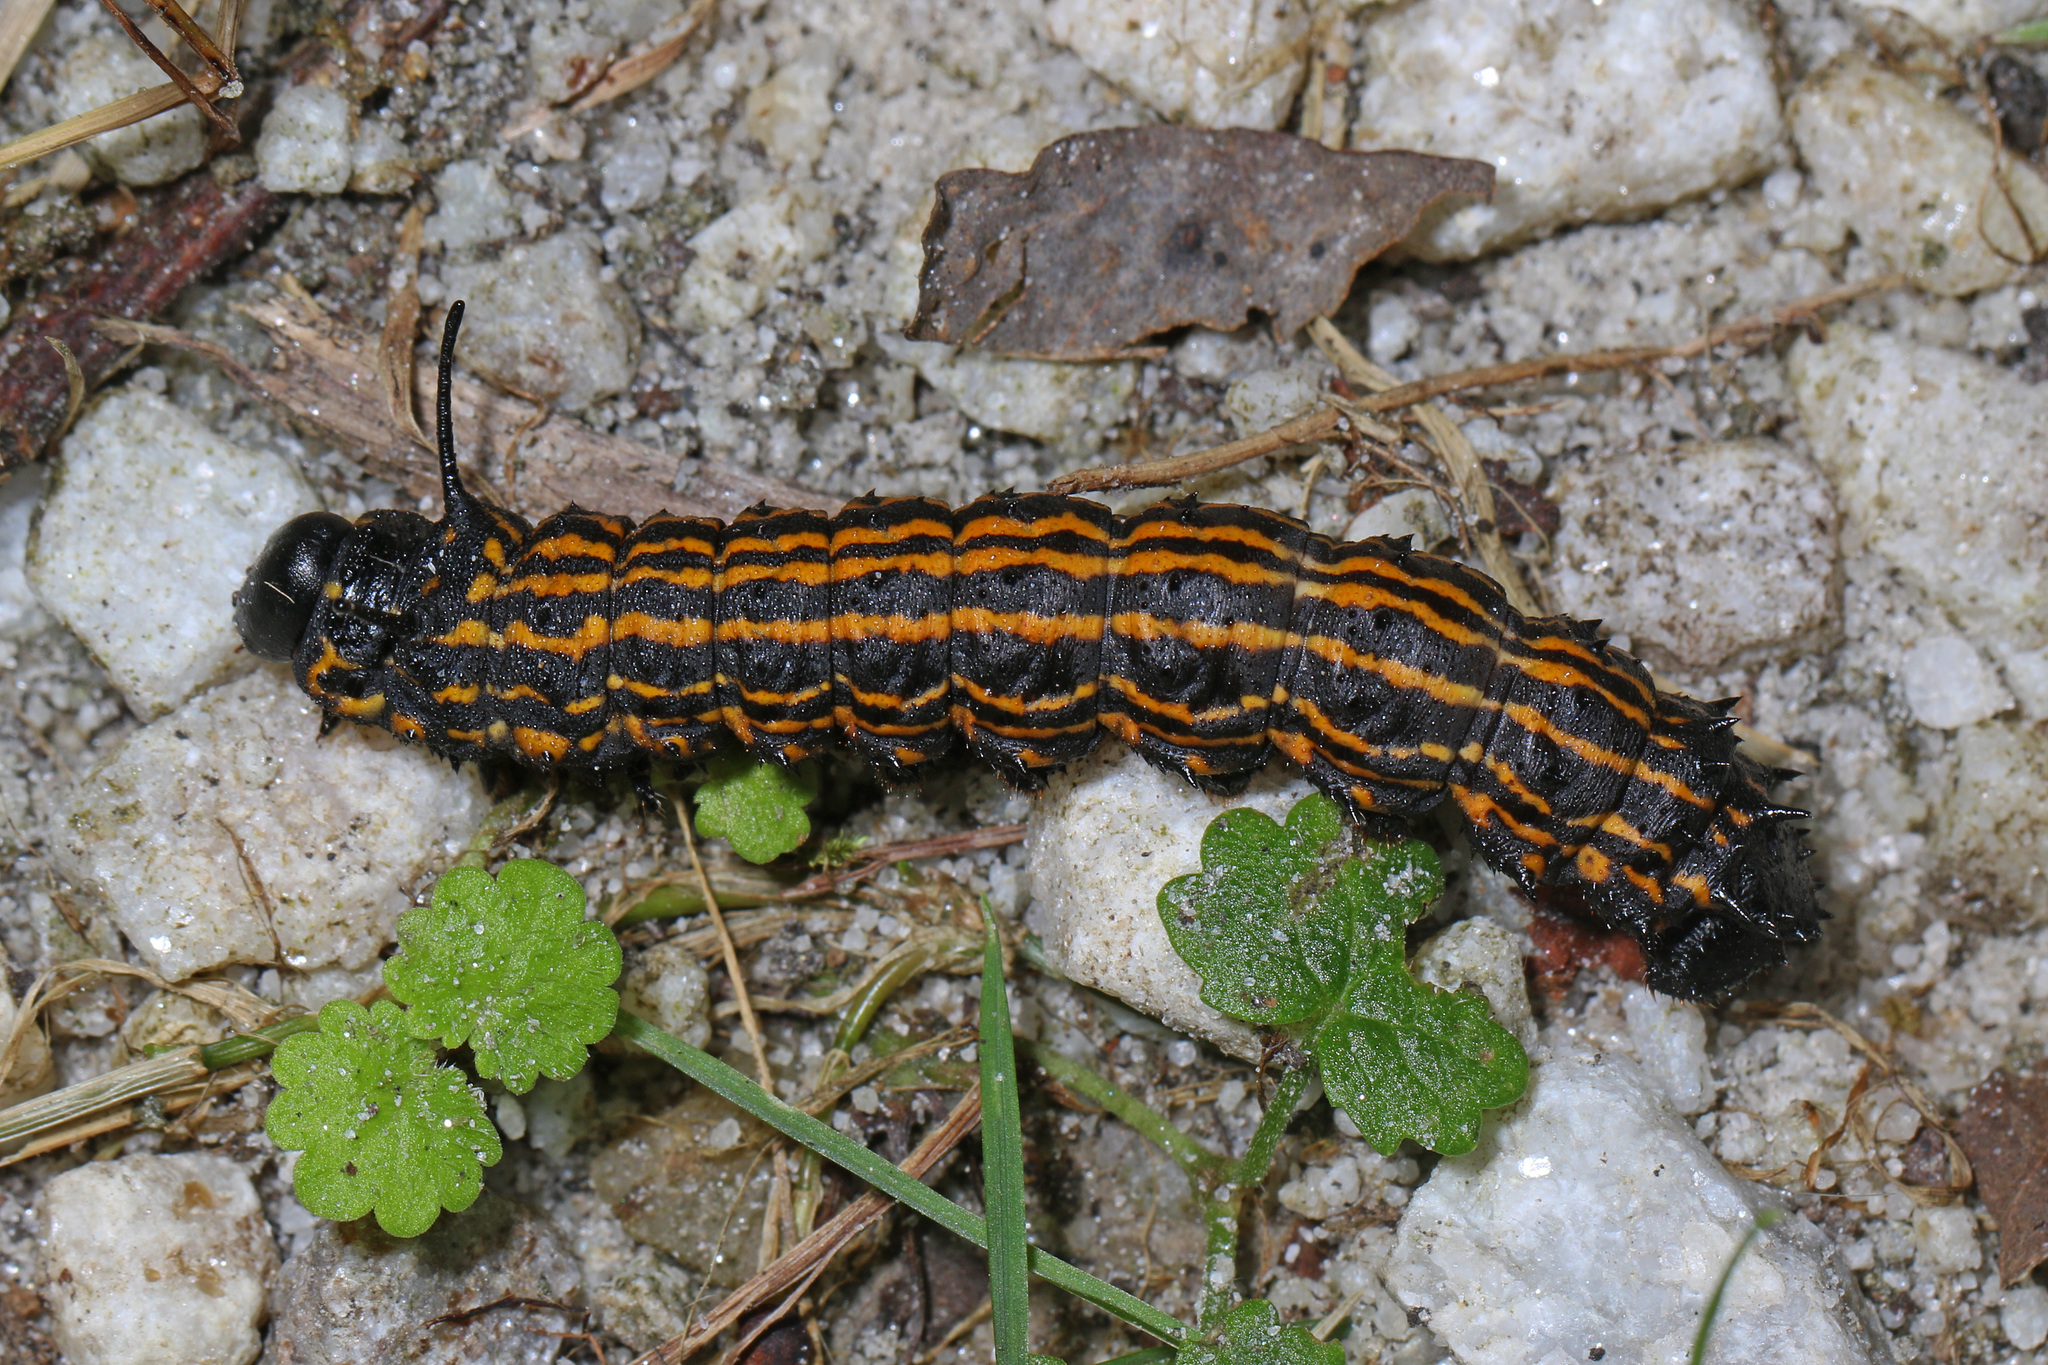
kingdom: Animalia
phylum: Arthropoda
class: Insecta
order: Lepidoptera
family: Saturniidae
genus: Anisota
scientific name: Anisota senatoria
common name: Orange-striped oakworm moth
